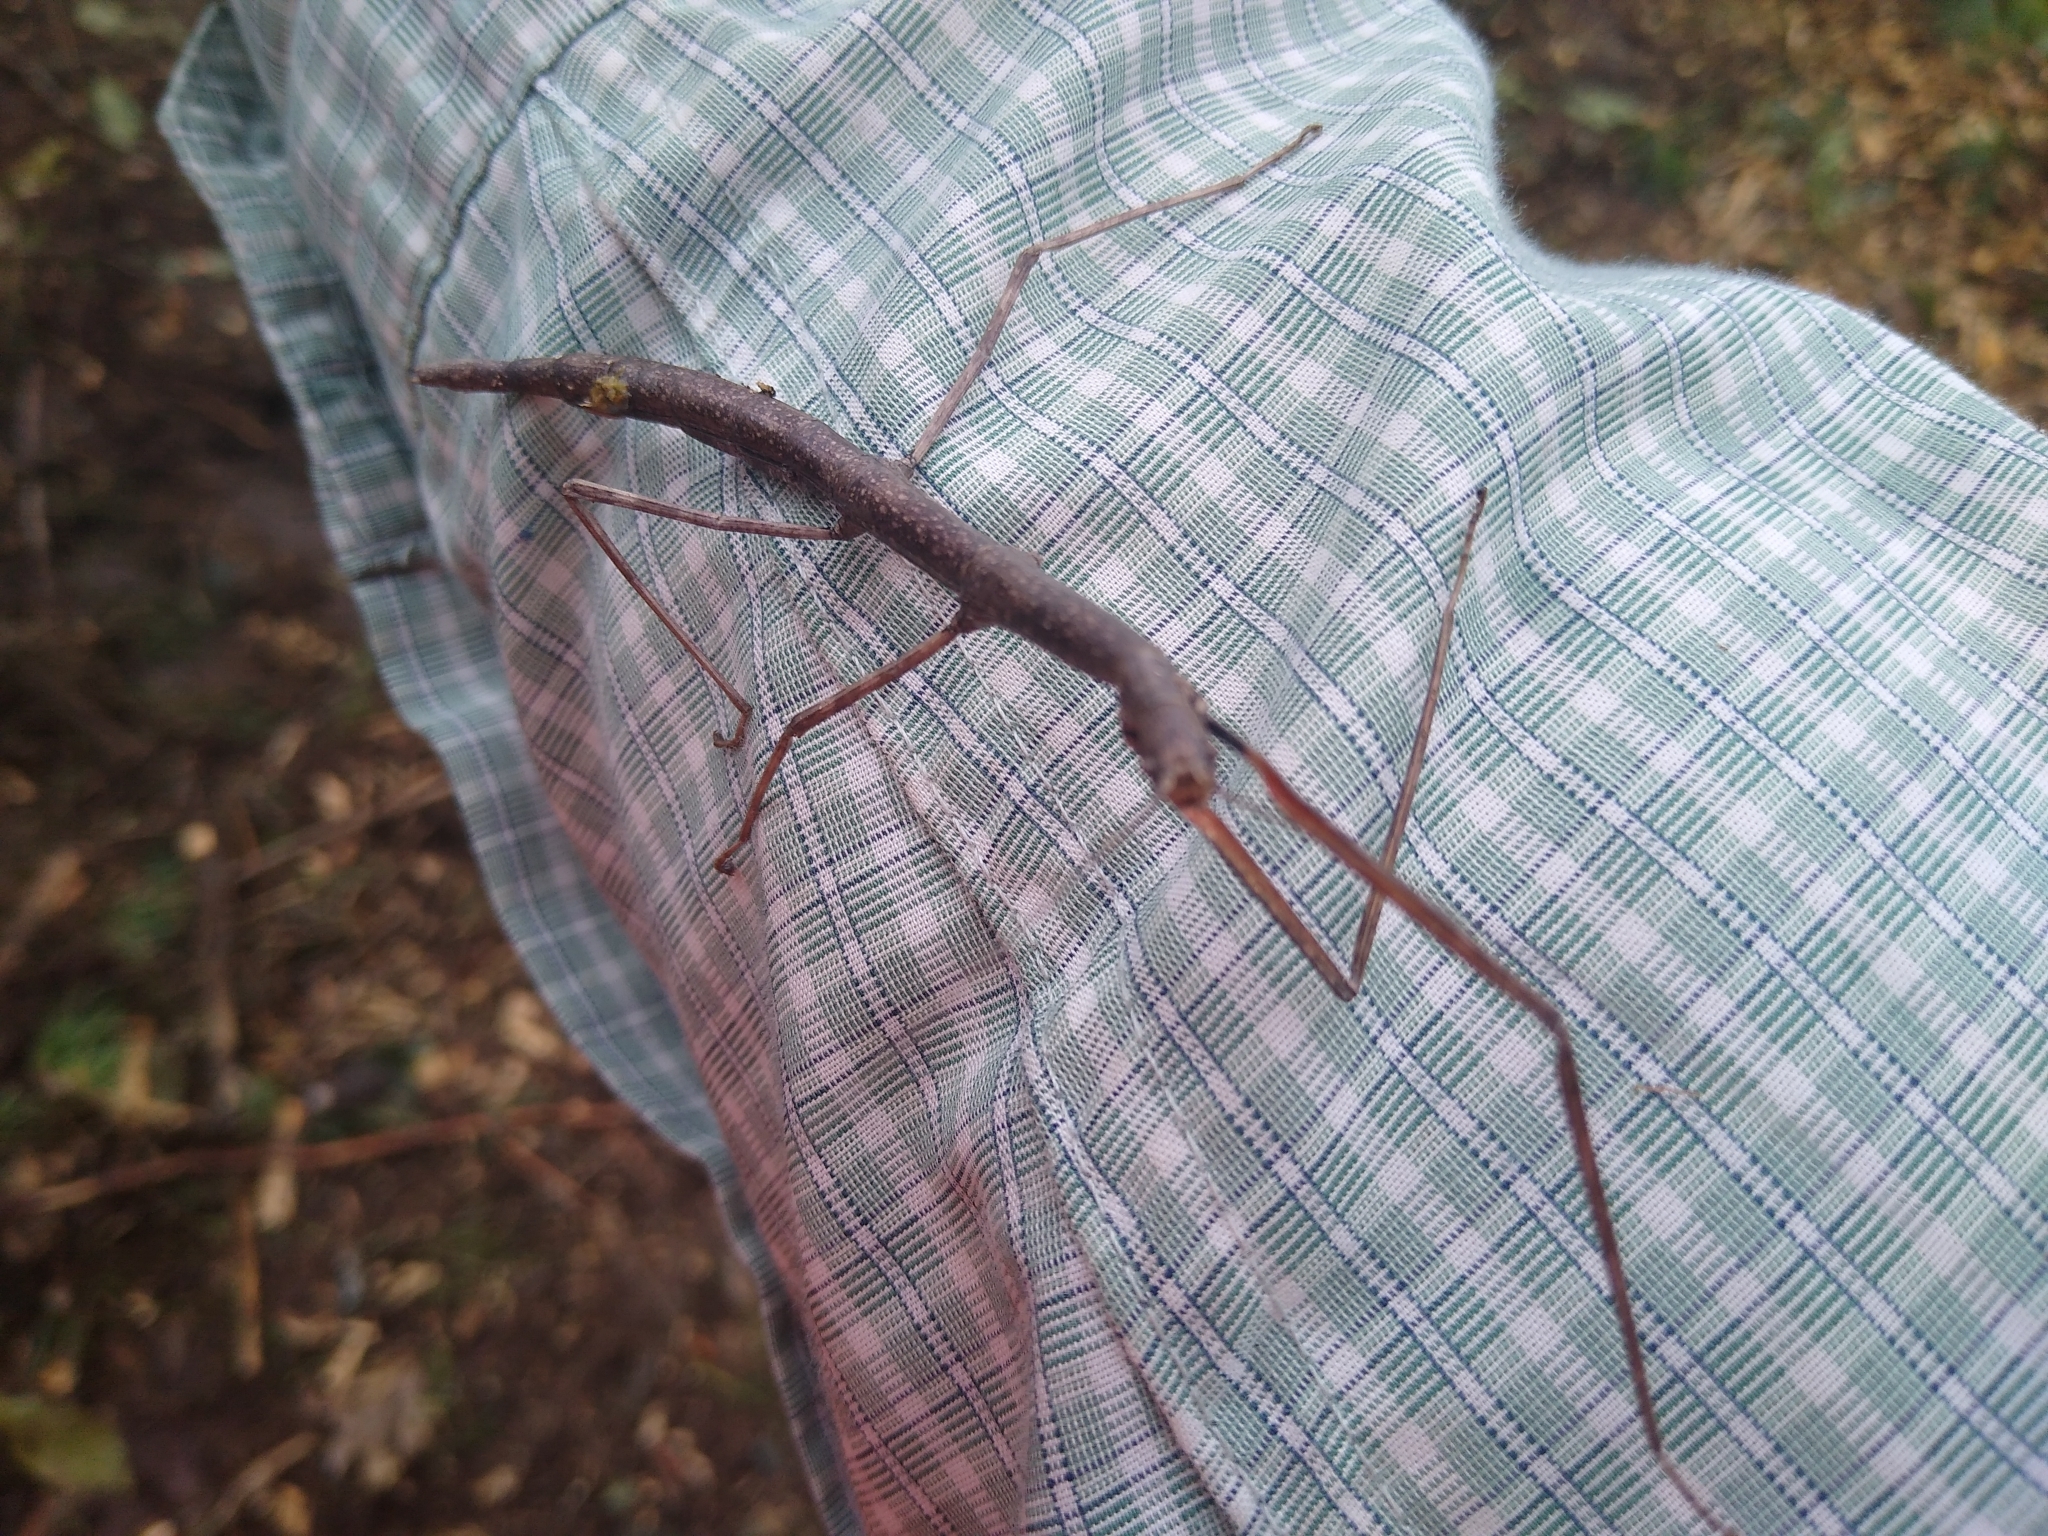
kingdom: Animalia
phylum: Arthropoda
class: Insecta
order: Phasmida
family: Diapheromeridae
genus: Diapheromera
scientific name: Diapheromera femorata
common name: Common american walkingstick
